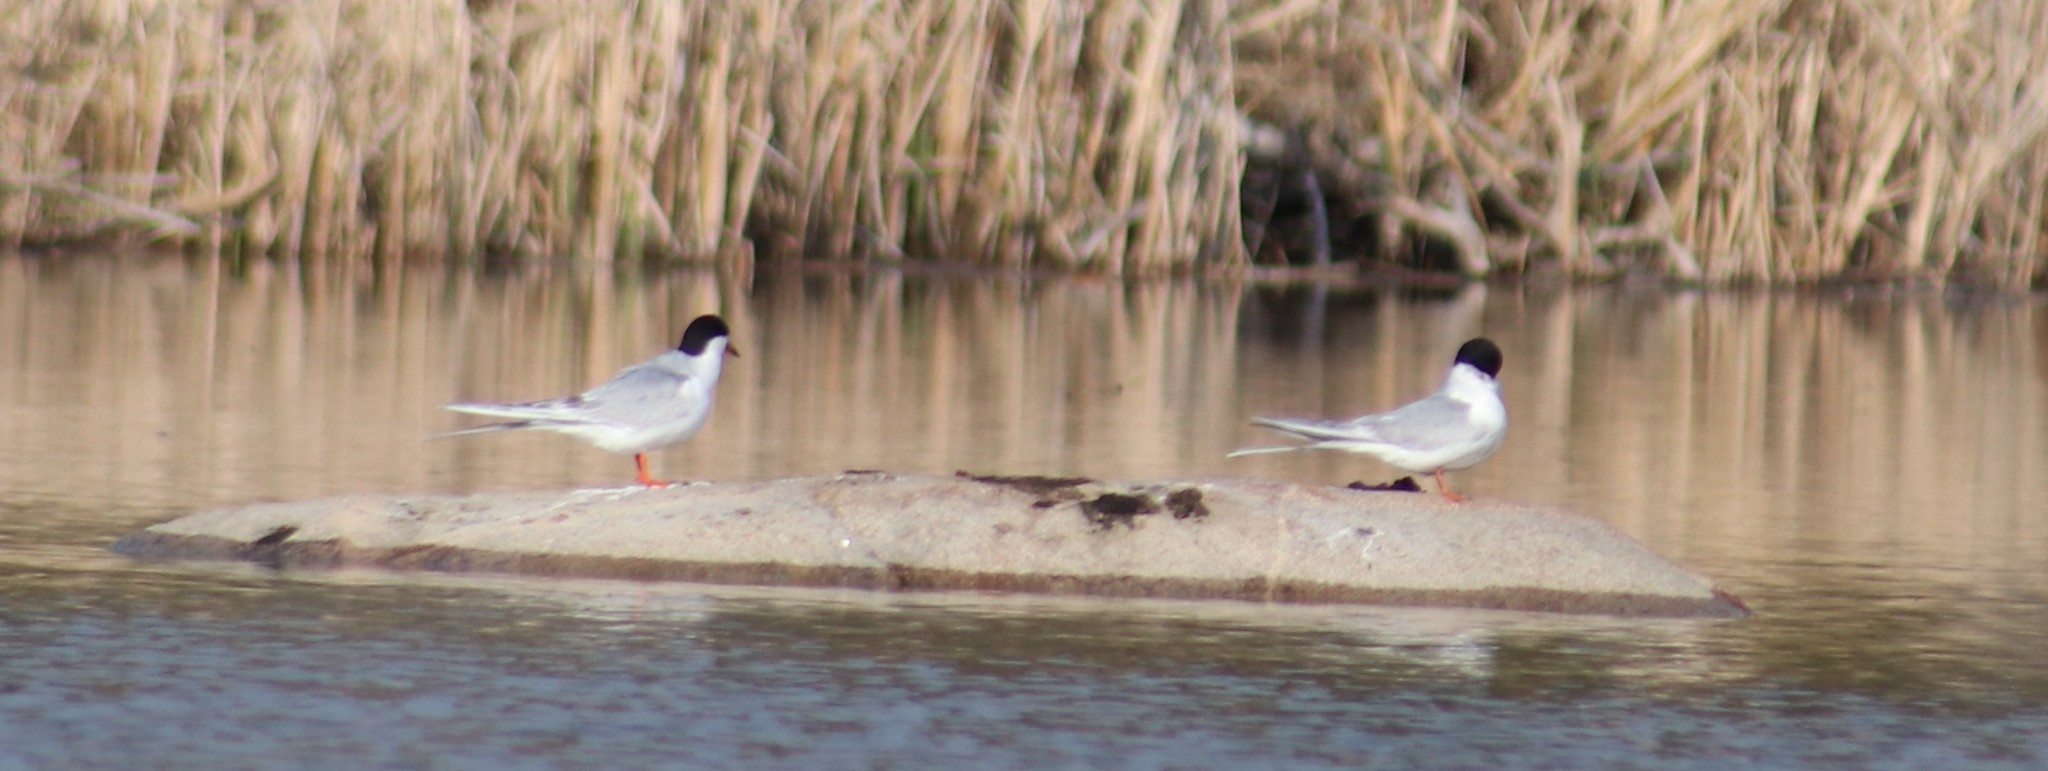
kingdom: Animalia
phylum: Chordata
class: Aves
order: Charadriiformes
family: Laridae
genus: Sterna
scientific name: Sterna forsteri
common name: Forster's tern
